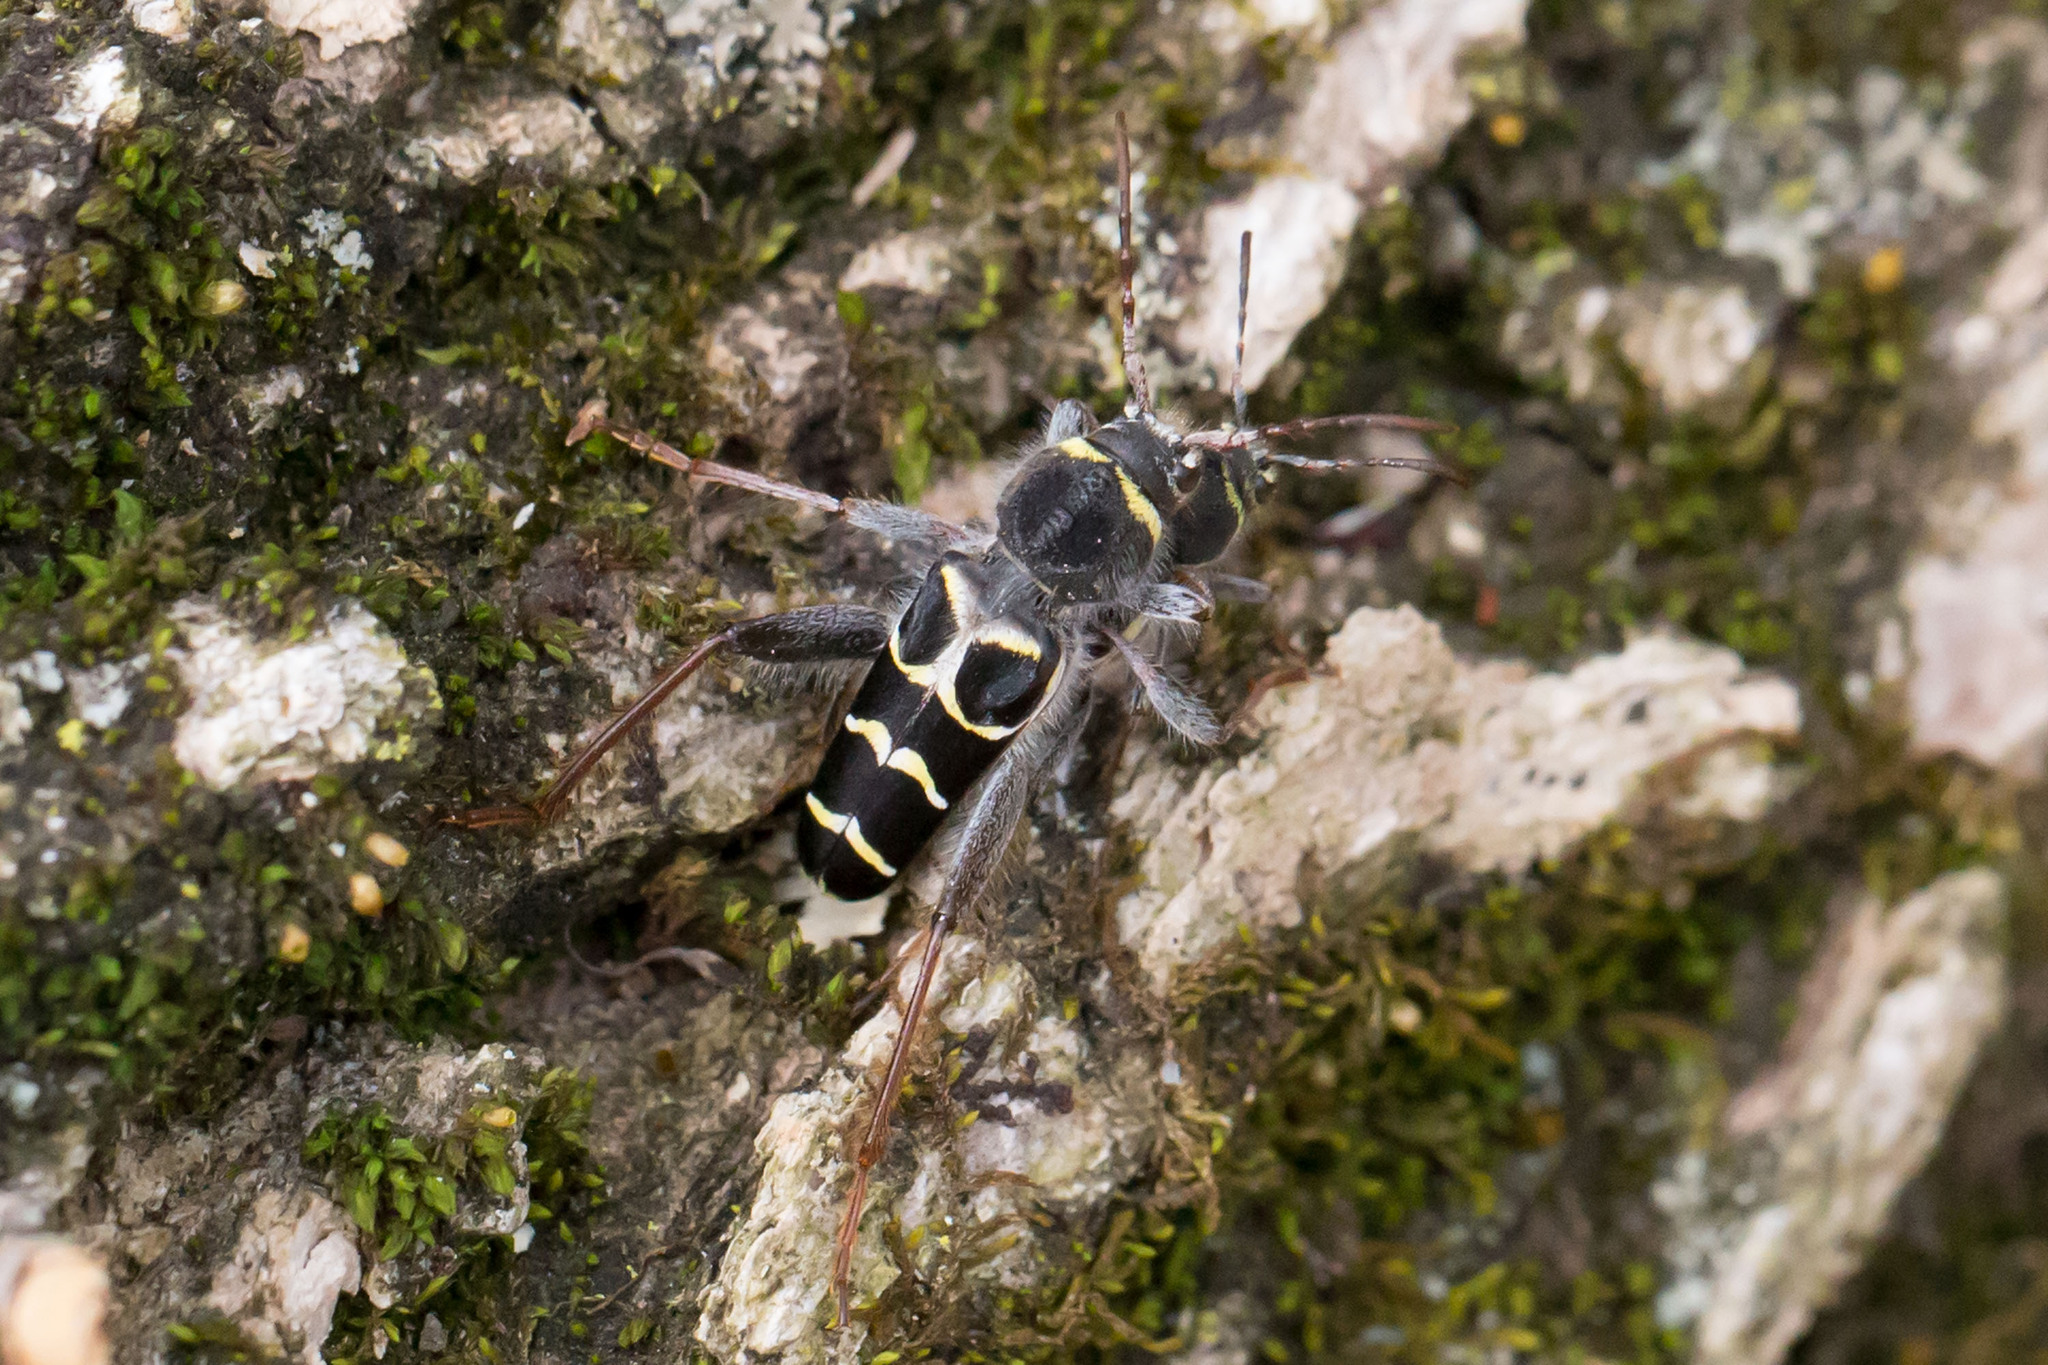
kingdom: Animalia
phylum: Arthropoda
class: Insecta
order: Coleoptera
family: Cerambycidae
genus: Neoclytus
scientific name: Neoclytus caprea
